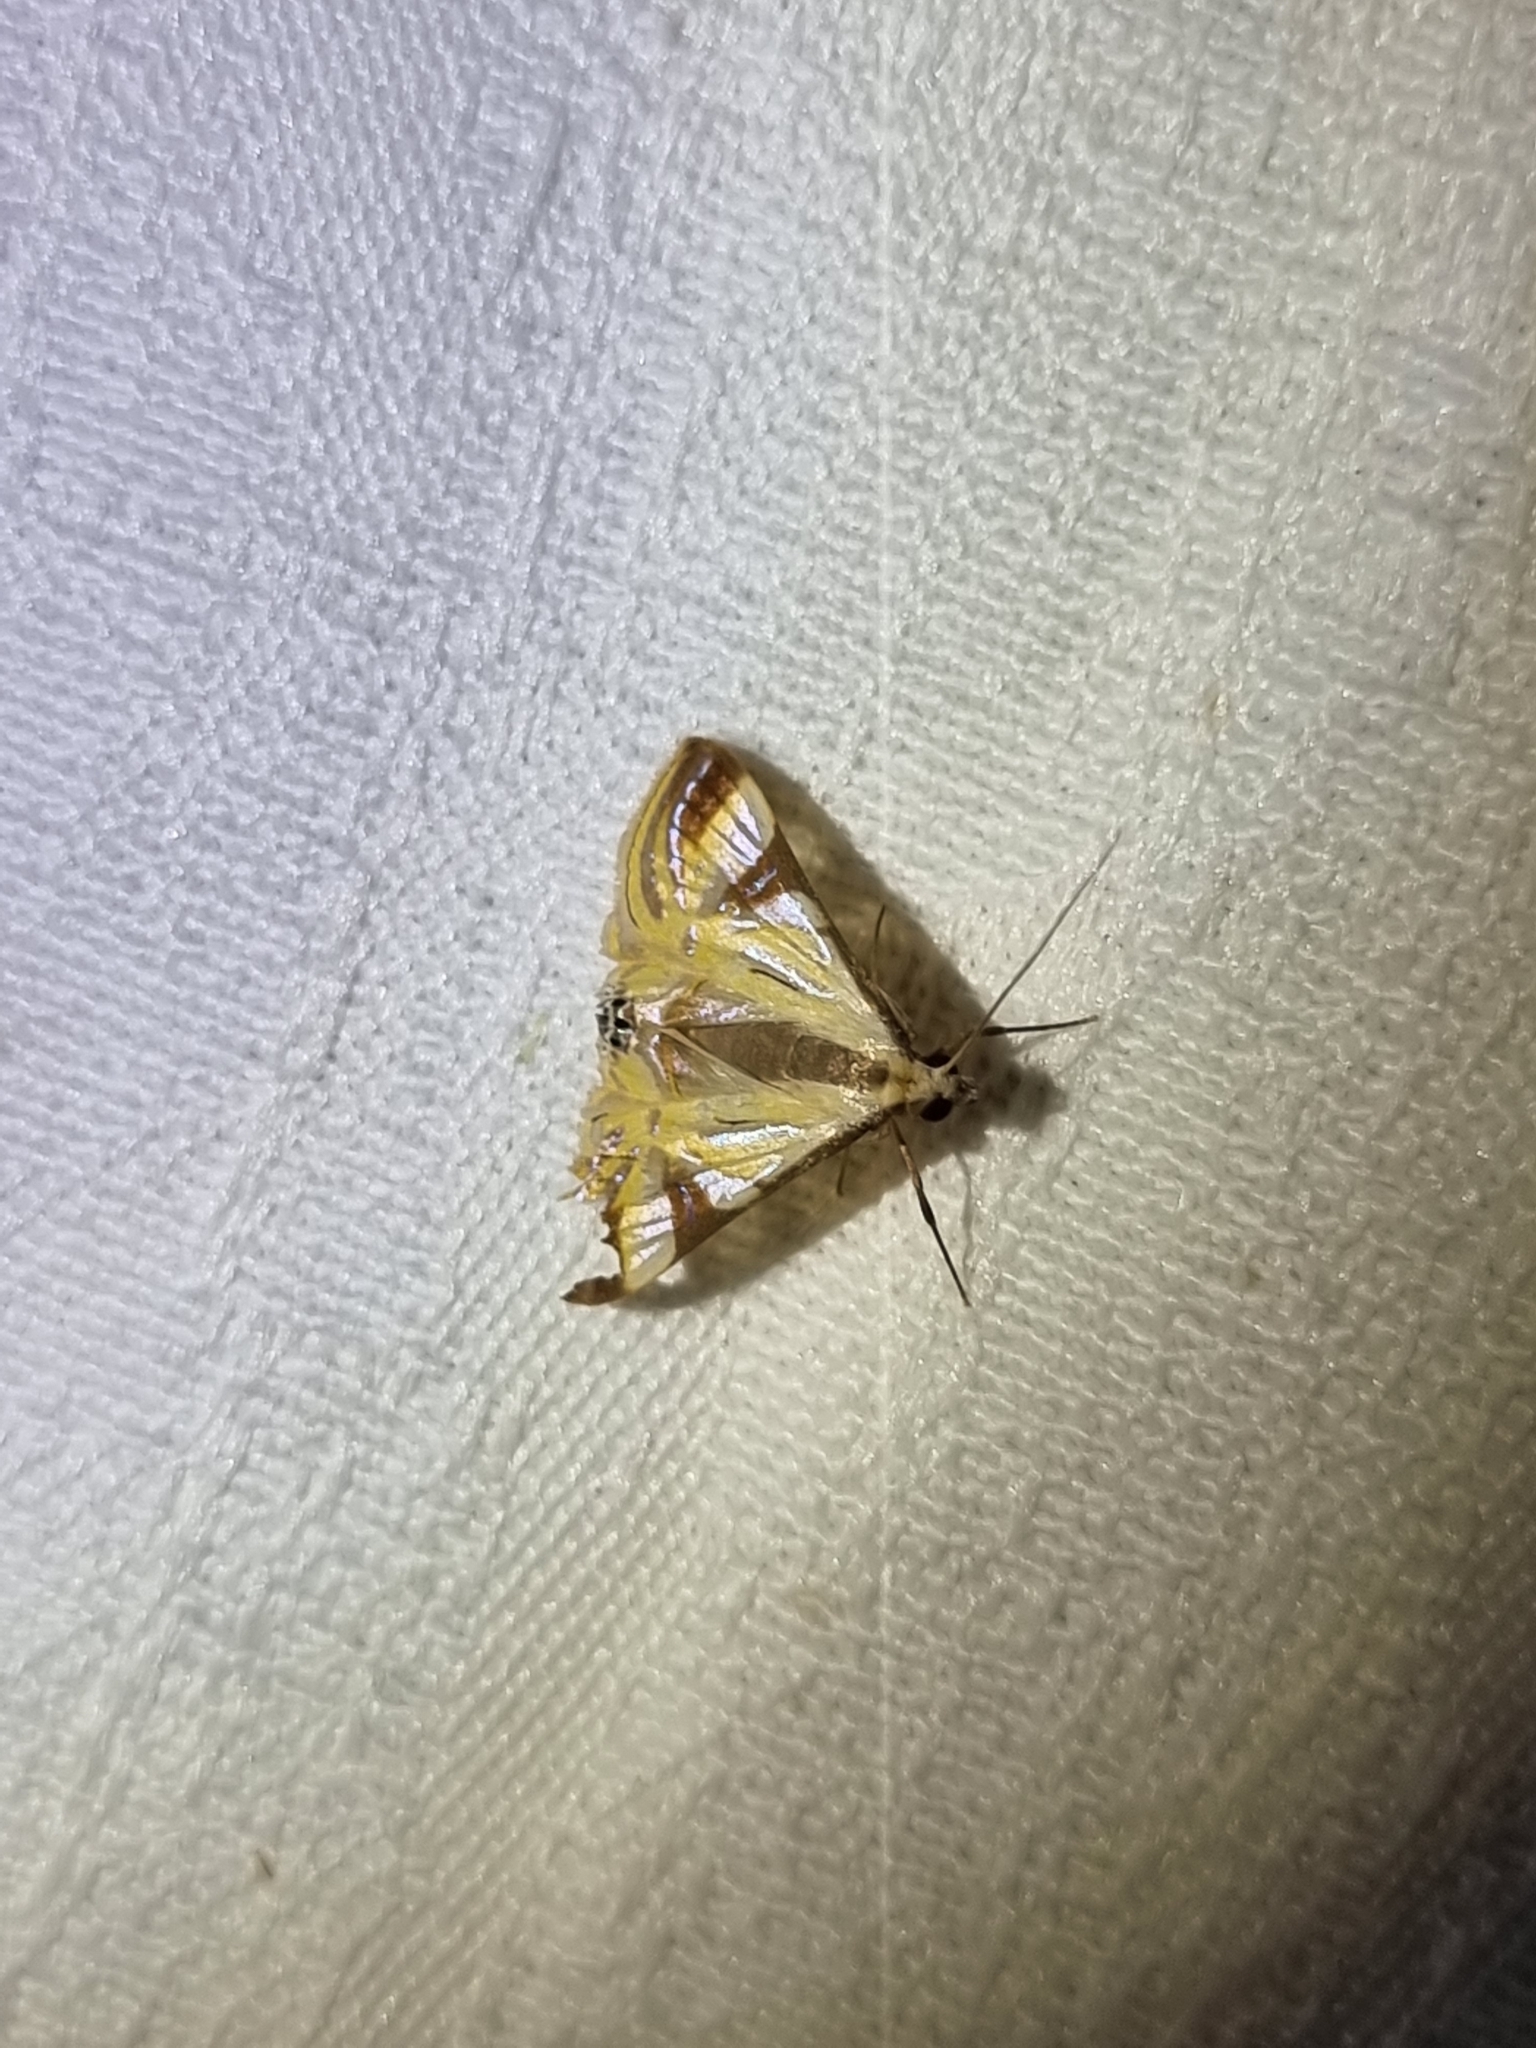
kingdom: Animalia
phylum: Arthropoda
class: Insecta
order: Lepidoptera
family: Crambidae
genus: Talanga
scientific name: Talanga tolumnialis
